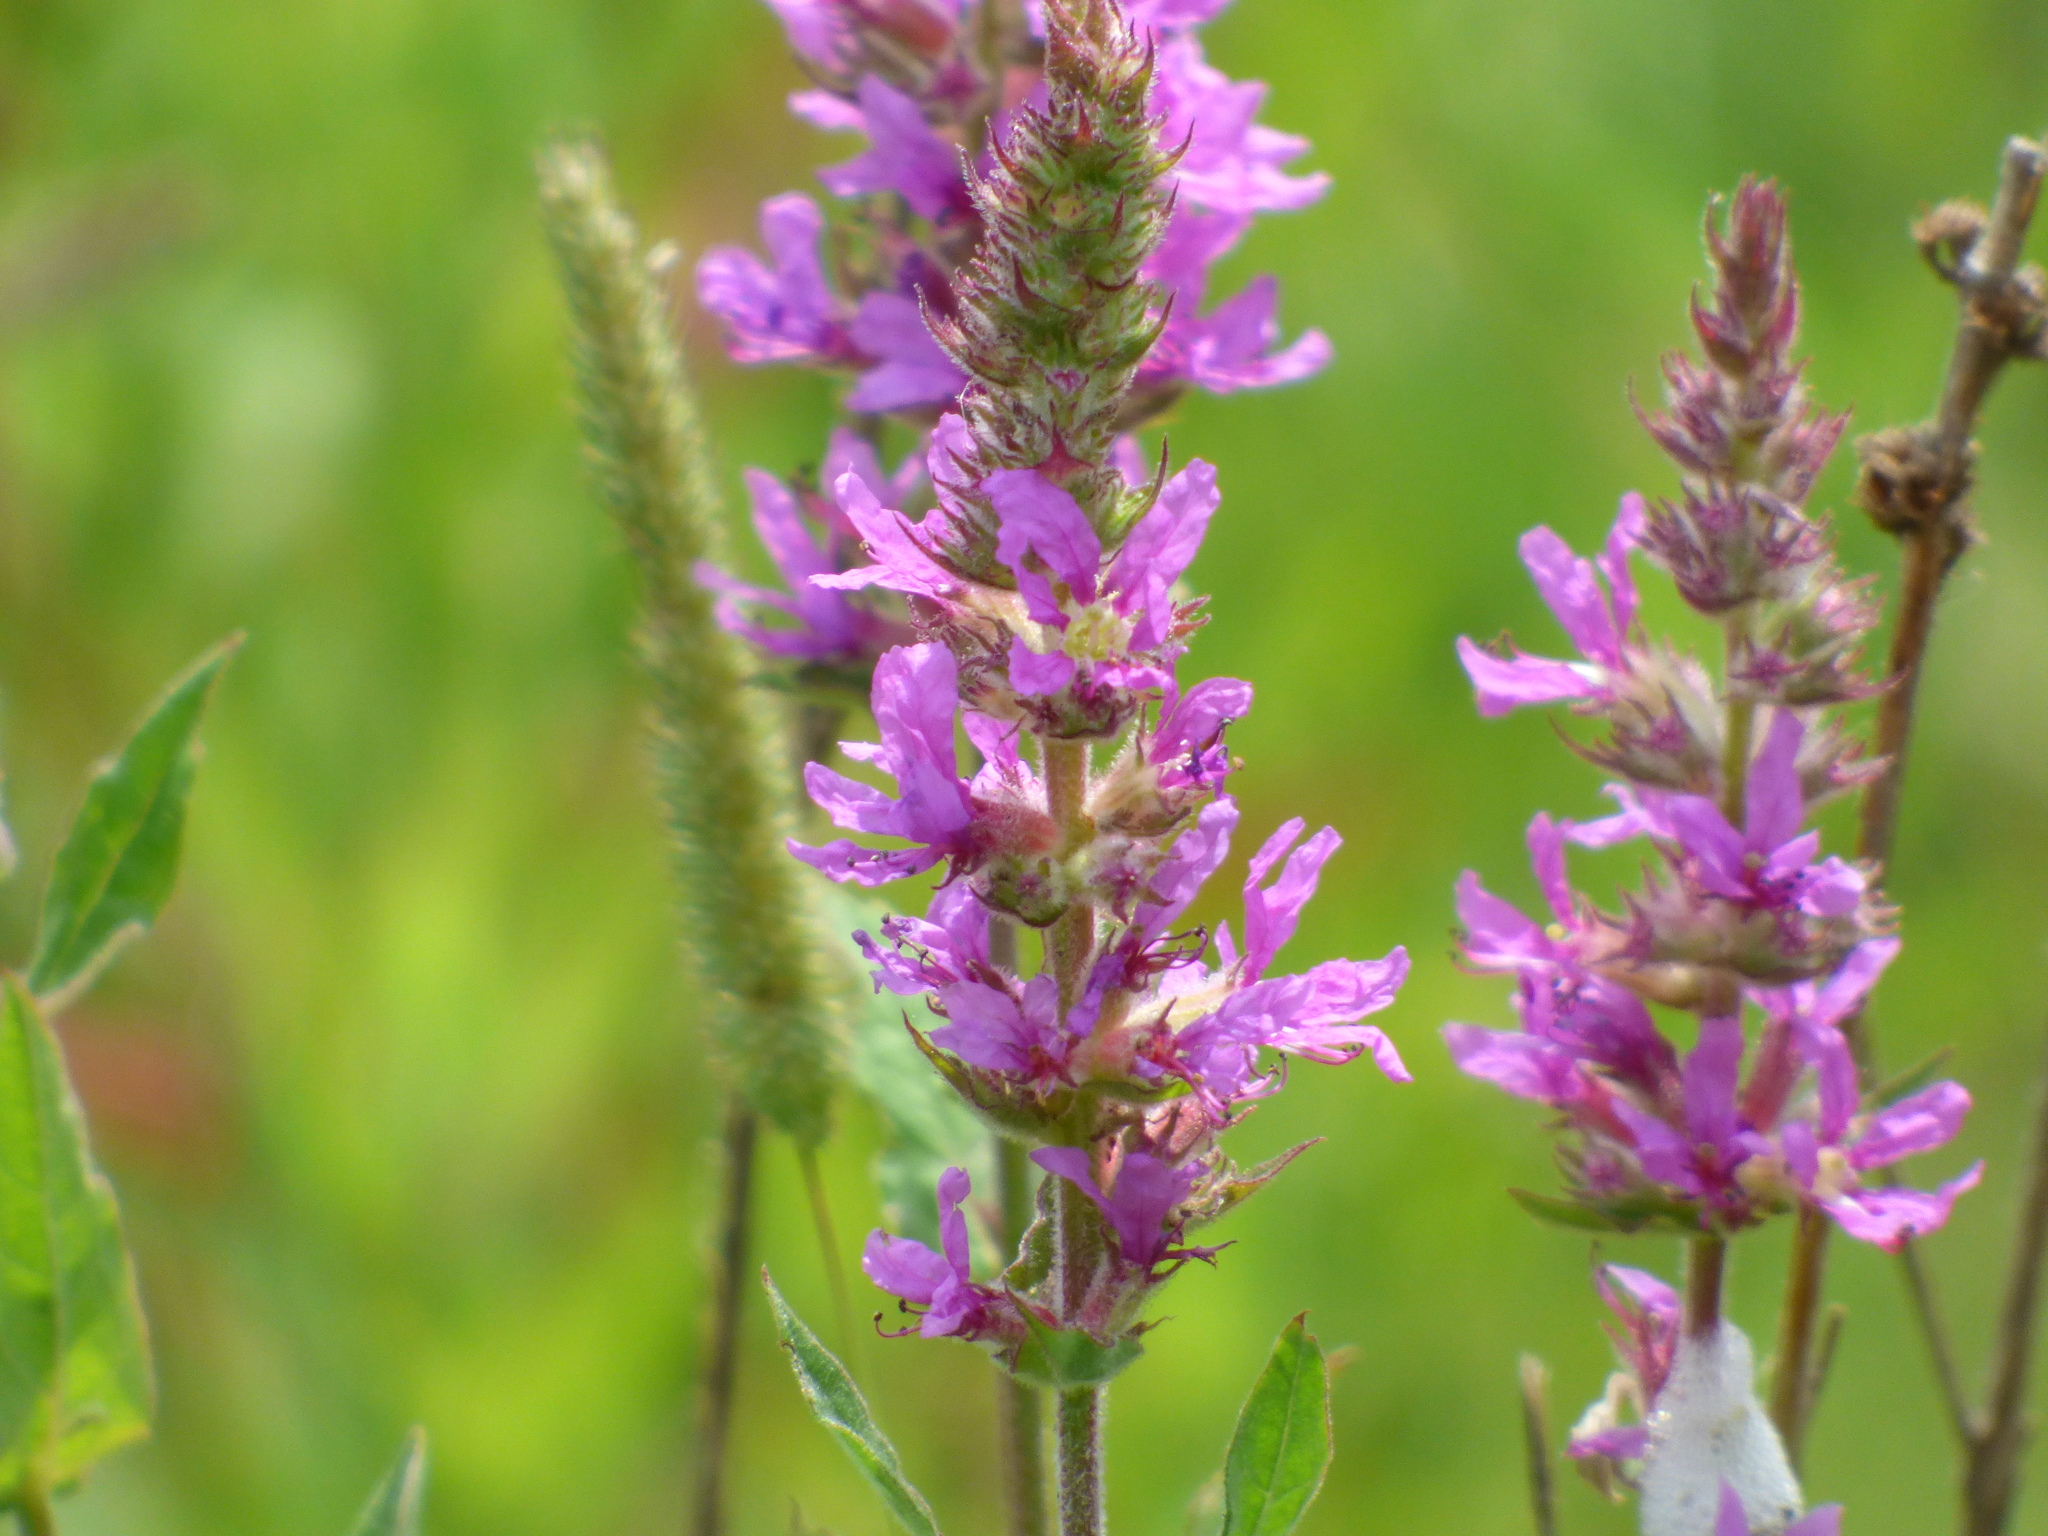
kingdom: Plantae
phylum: Tracheophyta
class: Magnoliopsida
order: Myrtales
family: Lythraceae
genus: Lythrum
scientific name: Lythrum salicaria
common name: Purple loosestrife
